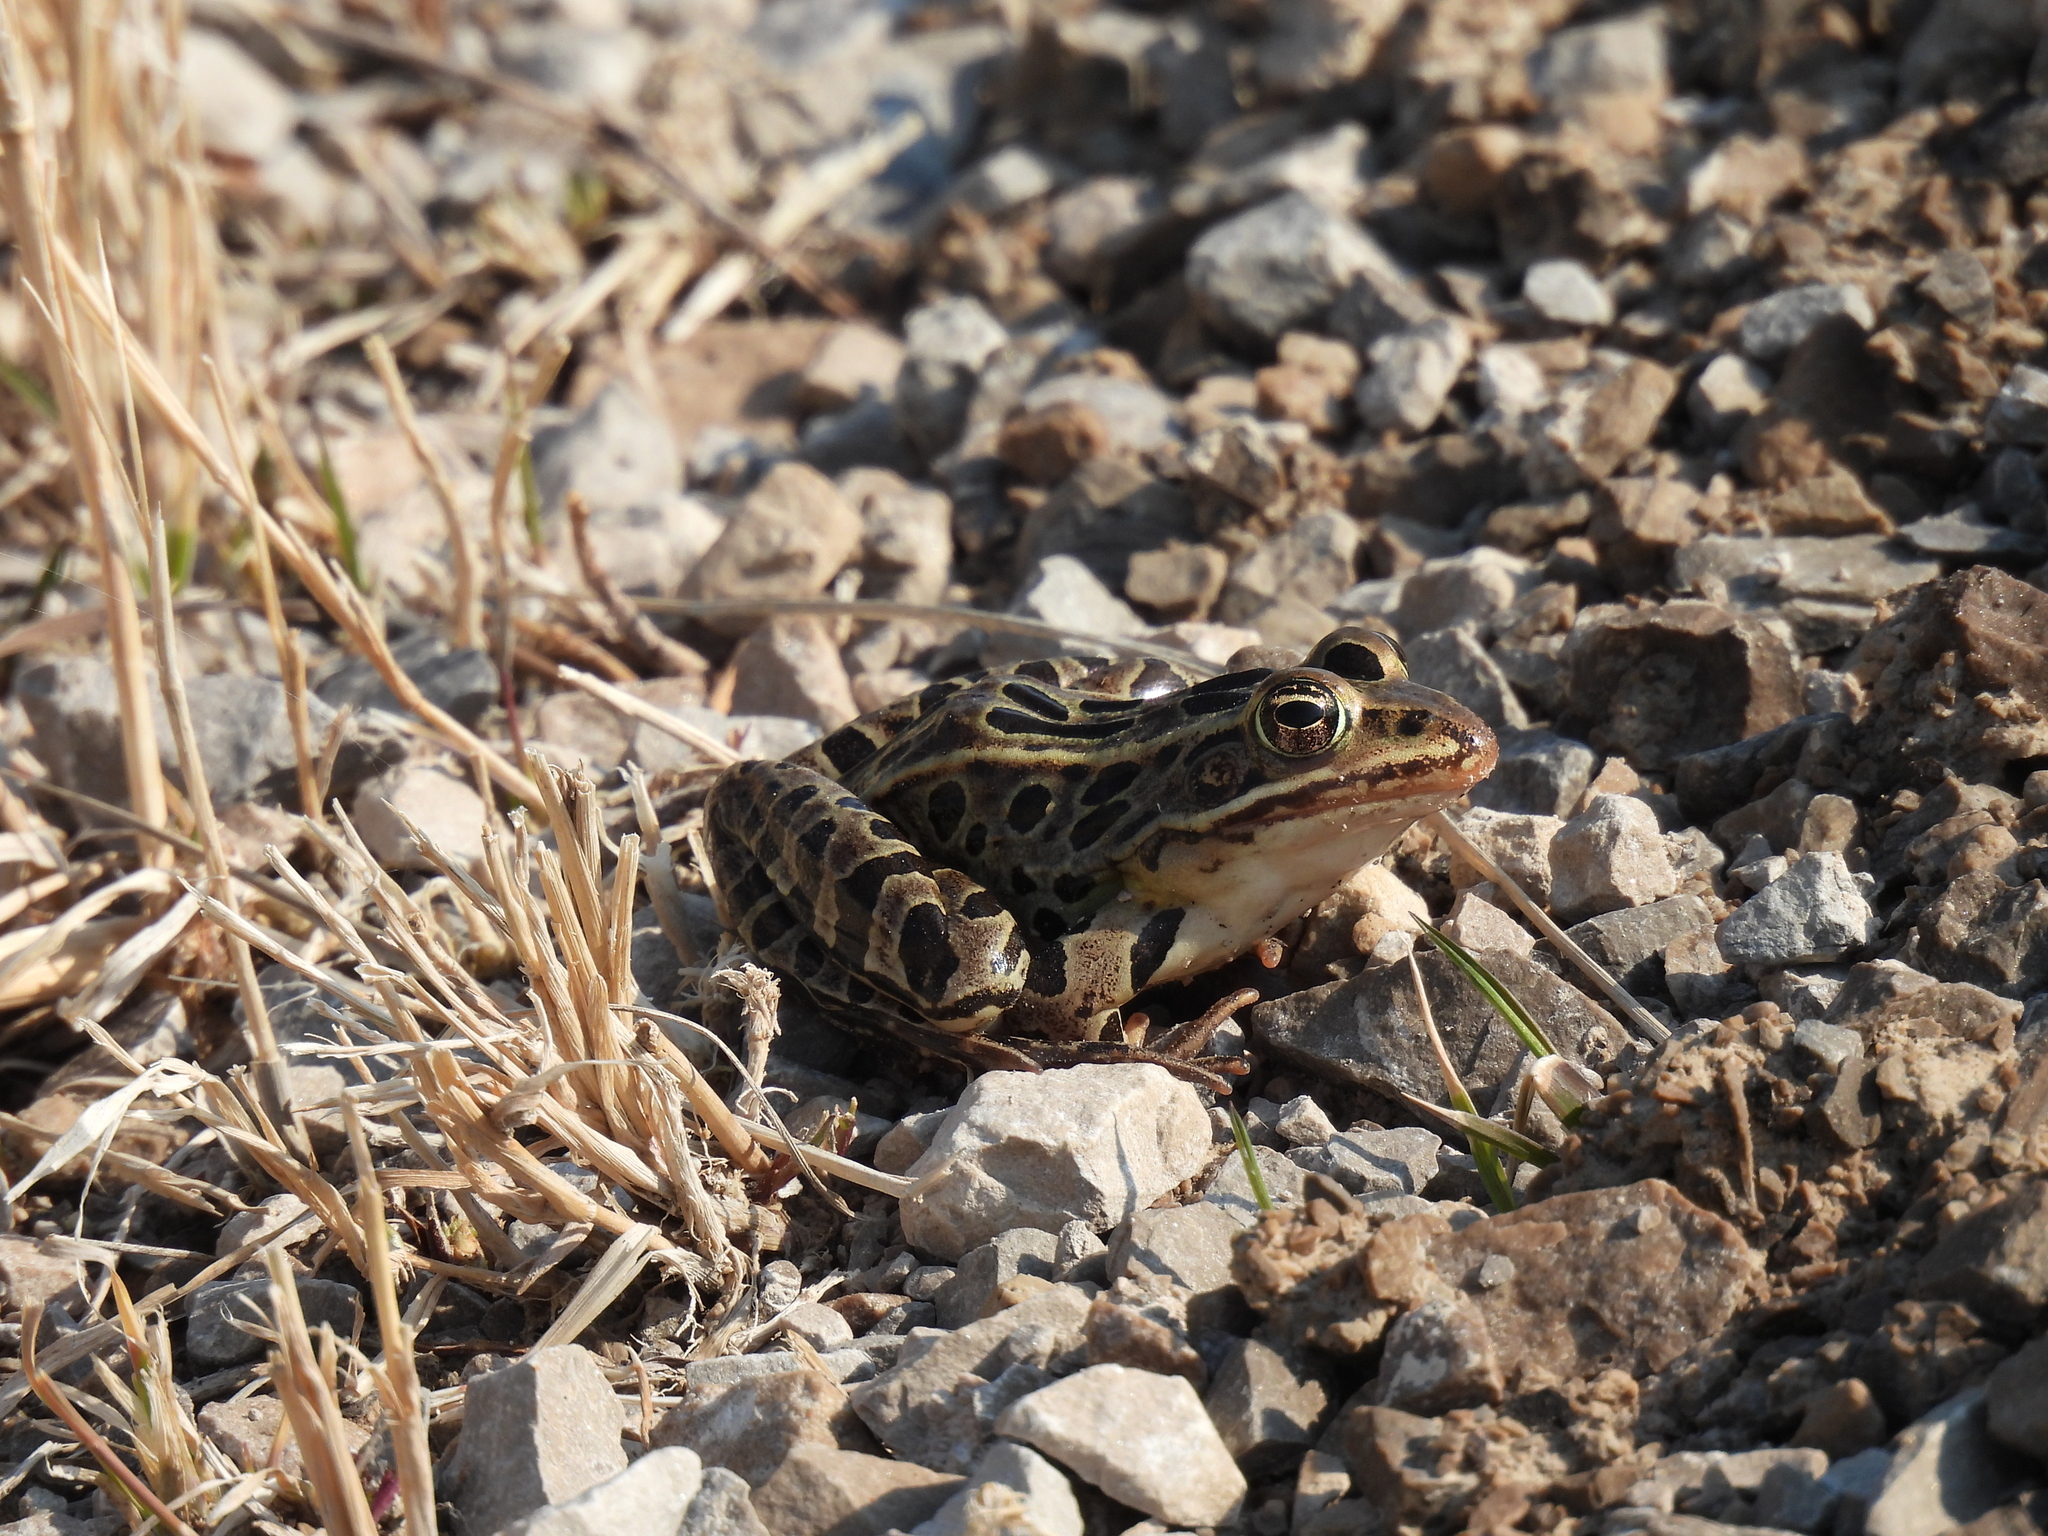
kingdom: Animalia
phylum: Chordata
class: Amphibia
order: Anura
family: Ranidae
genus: Lithobates
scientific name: Lithobates pipiens
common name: Northern leopard frog
